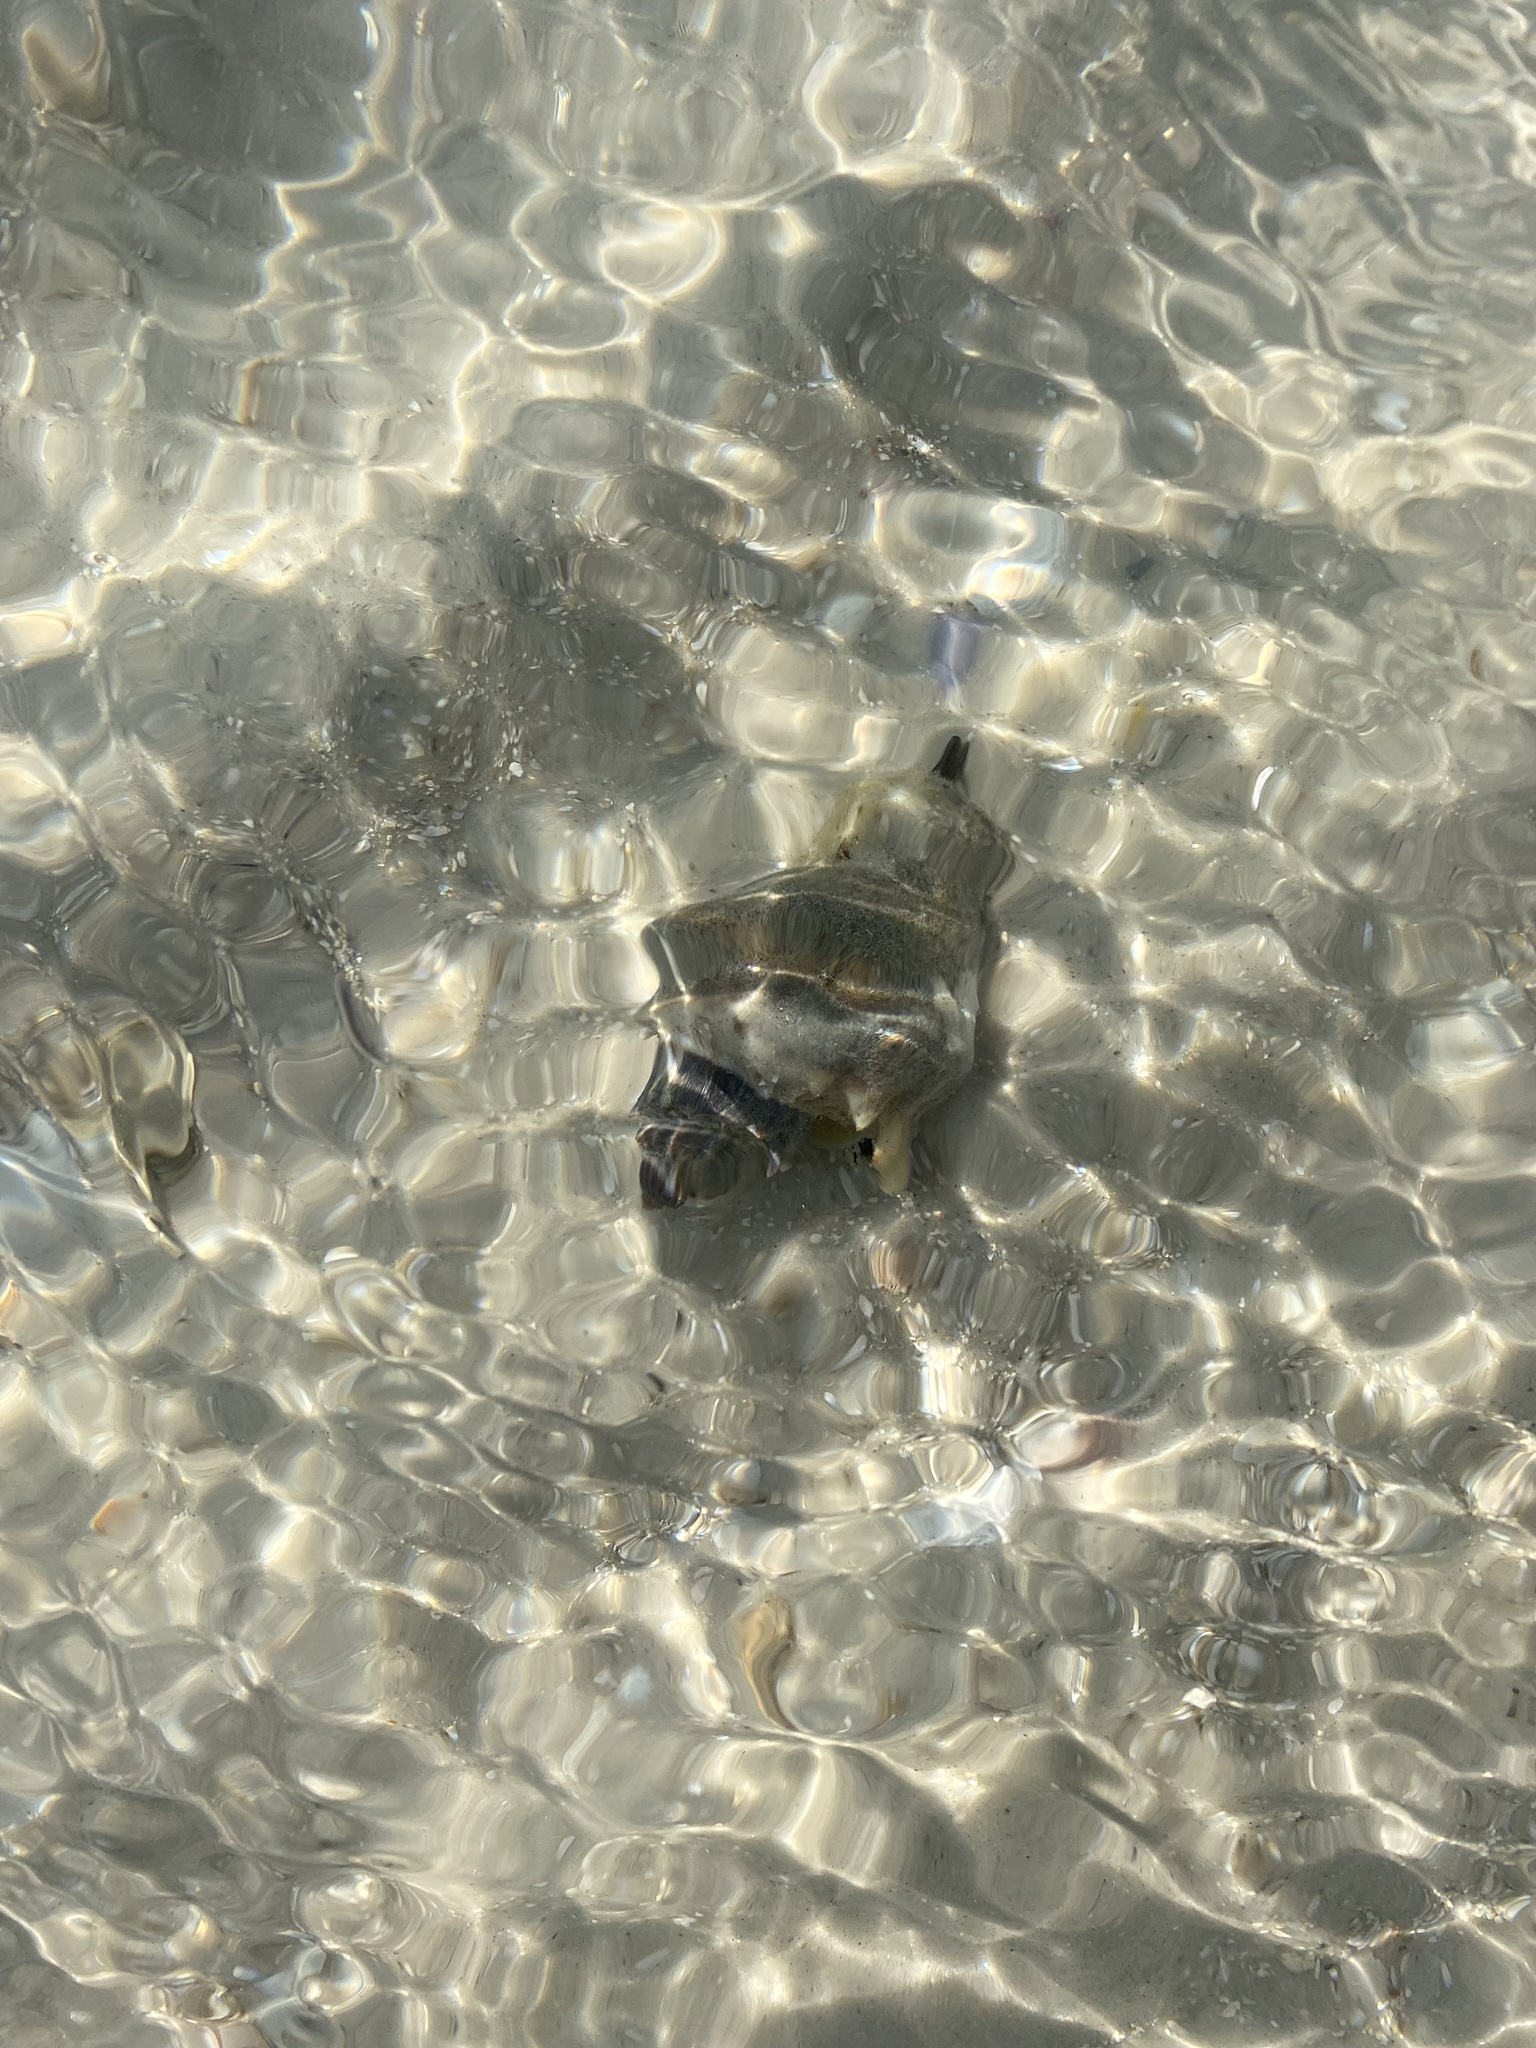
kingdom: Animalia
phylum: Mollusca
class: Gastropoda
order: Neogastropoda
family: Melongenidae
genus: Melongena
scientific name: Melongena corona
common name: American crown conch
